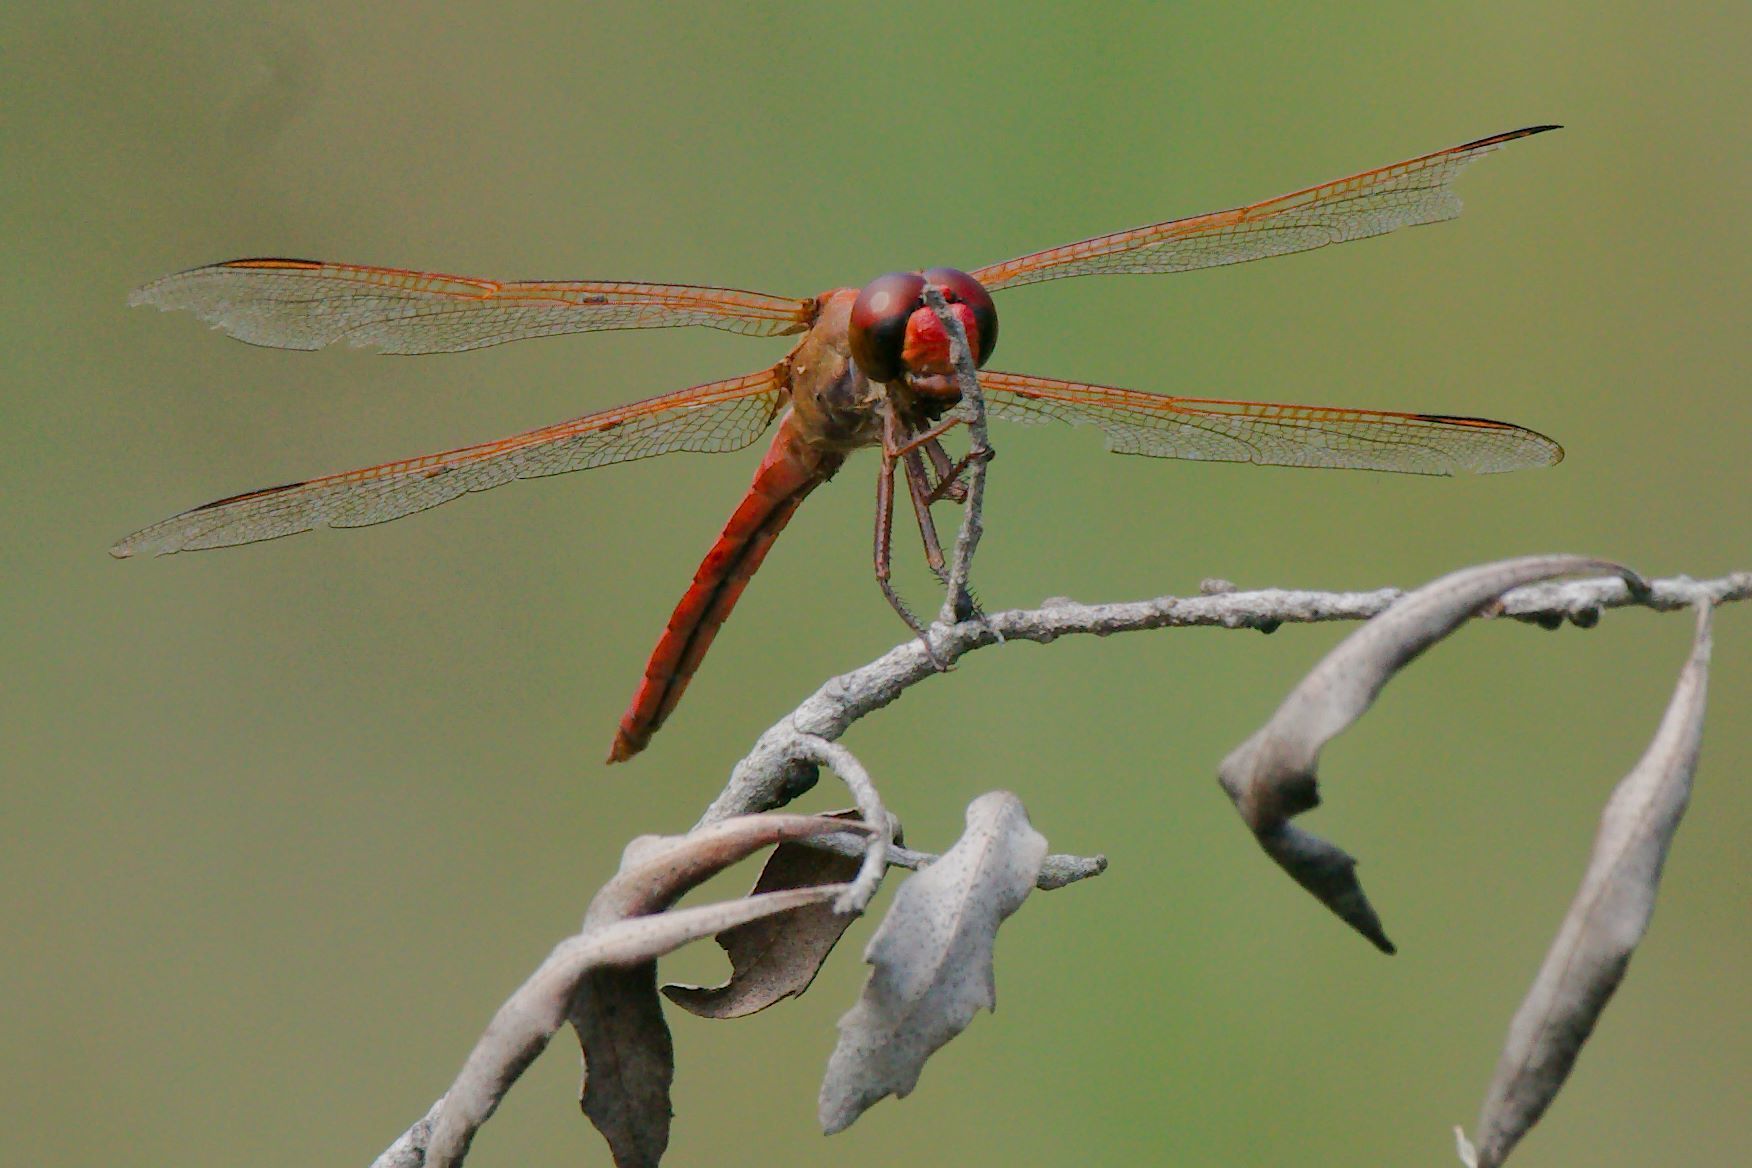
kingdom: Animalia
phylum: Arthropoda
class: Insecta
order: Odonata
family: Libellulidae
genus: Libellula
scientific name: Libellula needhami
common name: Needham's skimmer
